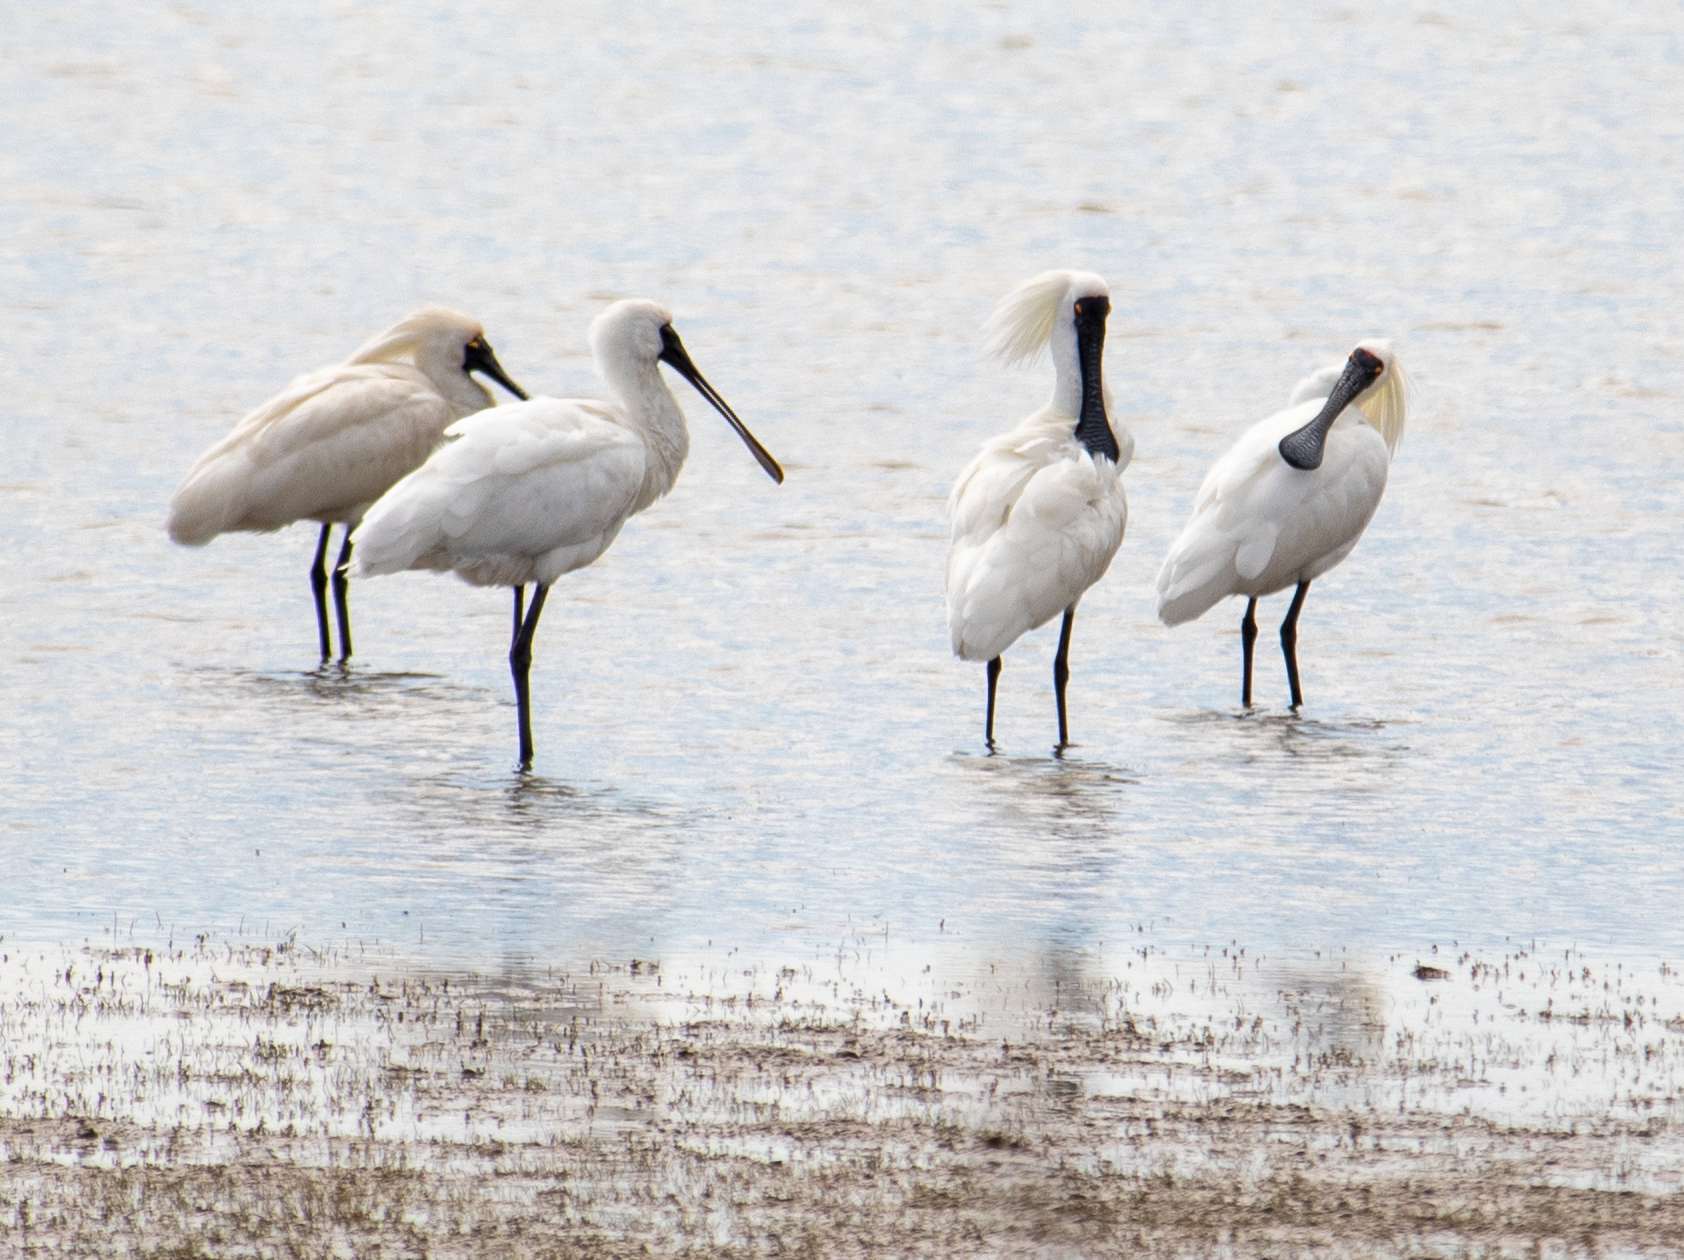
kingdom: Animalia
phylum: Chordata
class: Aves
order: Pelecaniformes
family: Threskiornithidae
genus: Platalea
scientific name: Platalea regia
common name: Royal spoonbill
